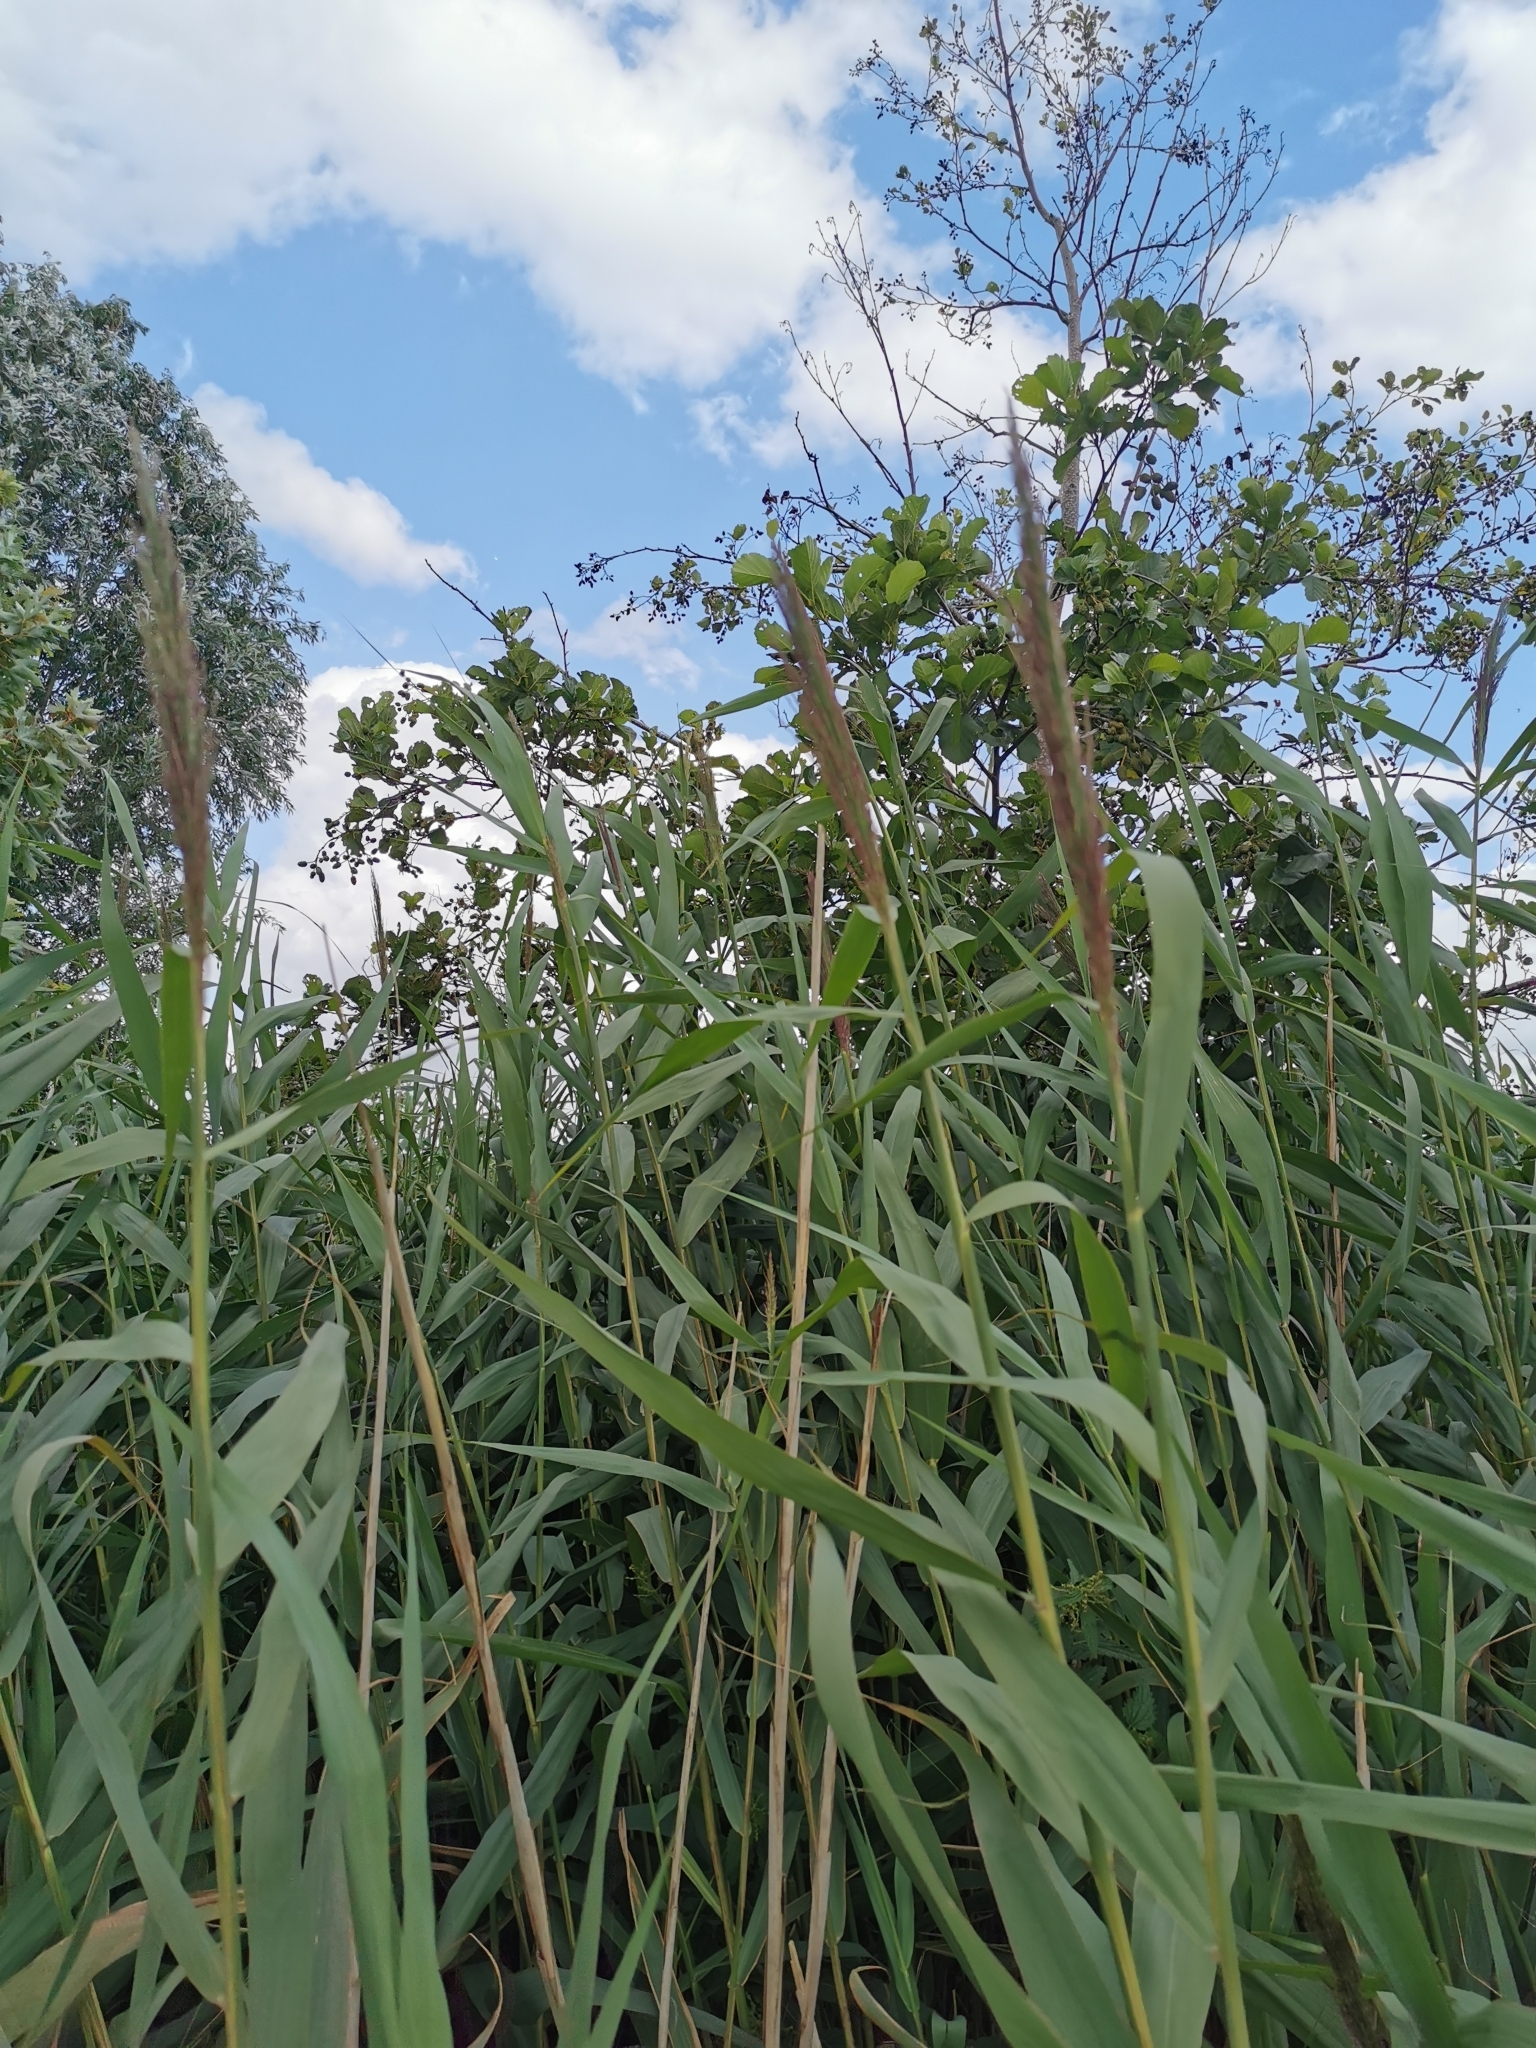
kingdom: Plantae
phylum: Tracheophyta
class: Liliopsida
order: Poales
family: Poaceae
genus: Phragmites
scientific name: Phragmites australis
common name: Common reed
